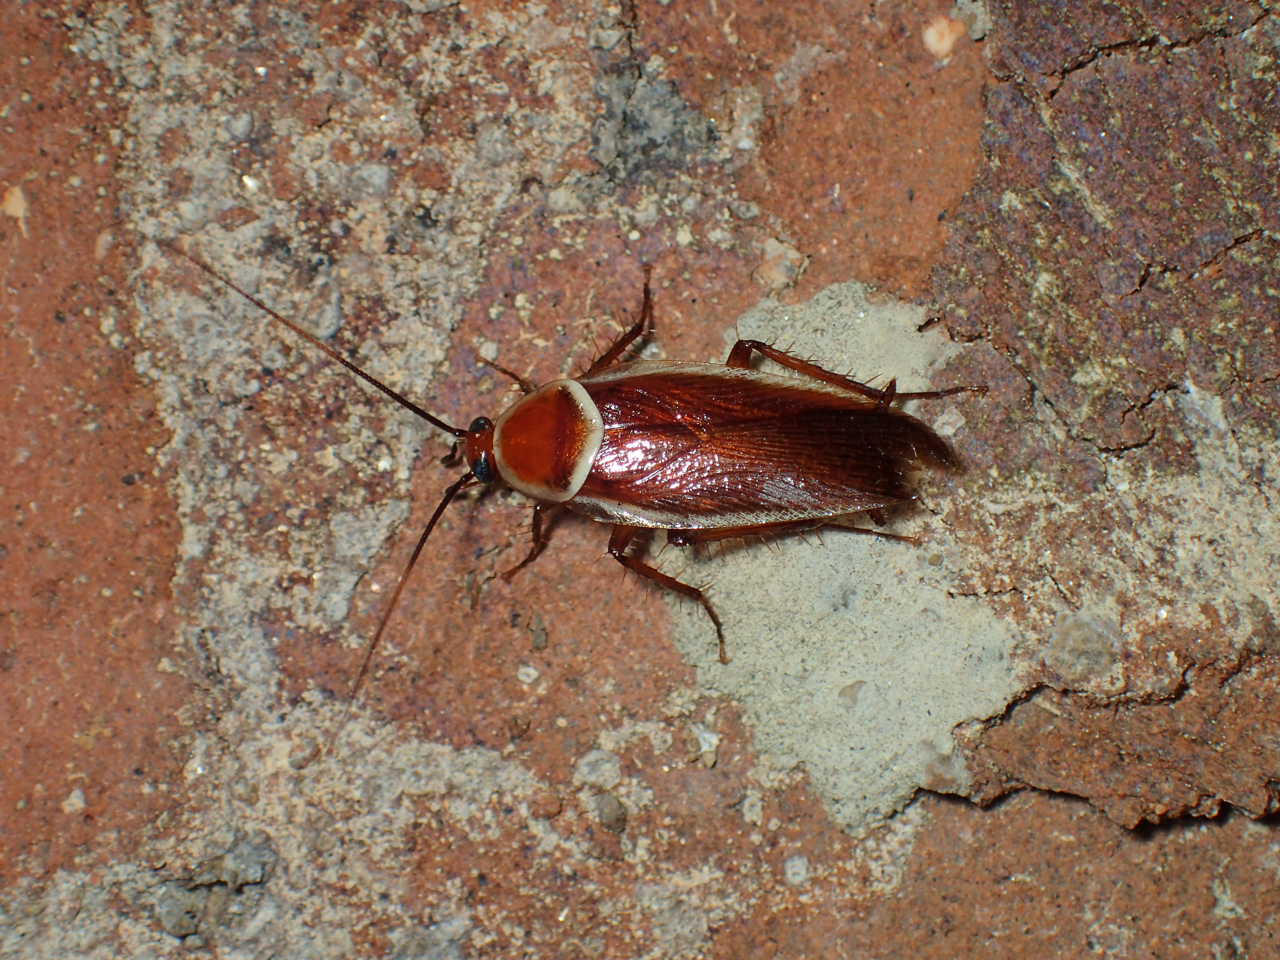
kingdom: Animalia
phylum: Arthropoda
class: Insecta
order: Blattodea
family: Ectobiidae
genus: Pseudomops
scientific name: Pseudomops septentrionalis
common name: Pale-bordered field cockroach
